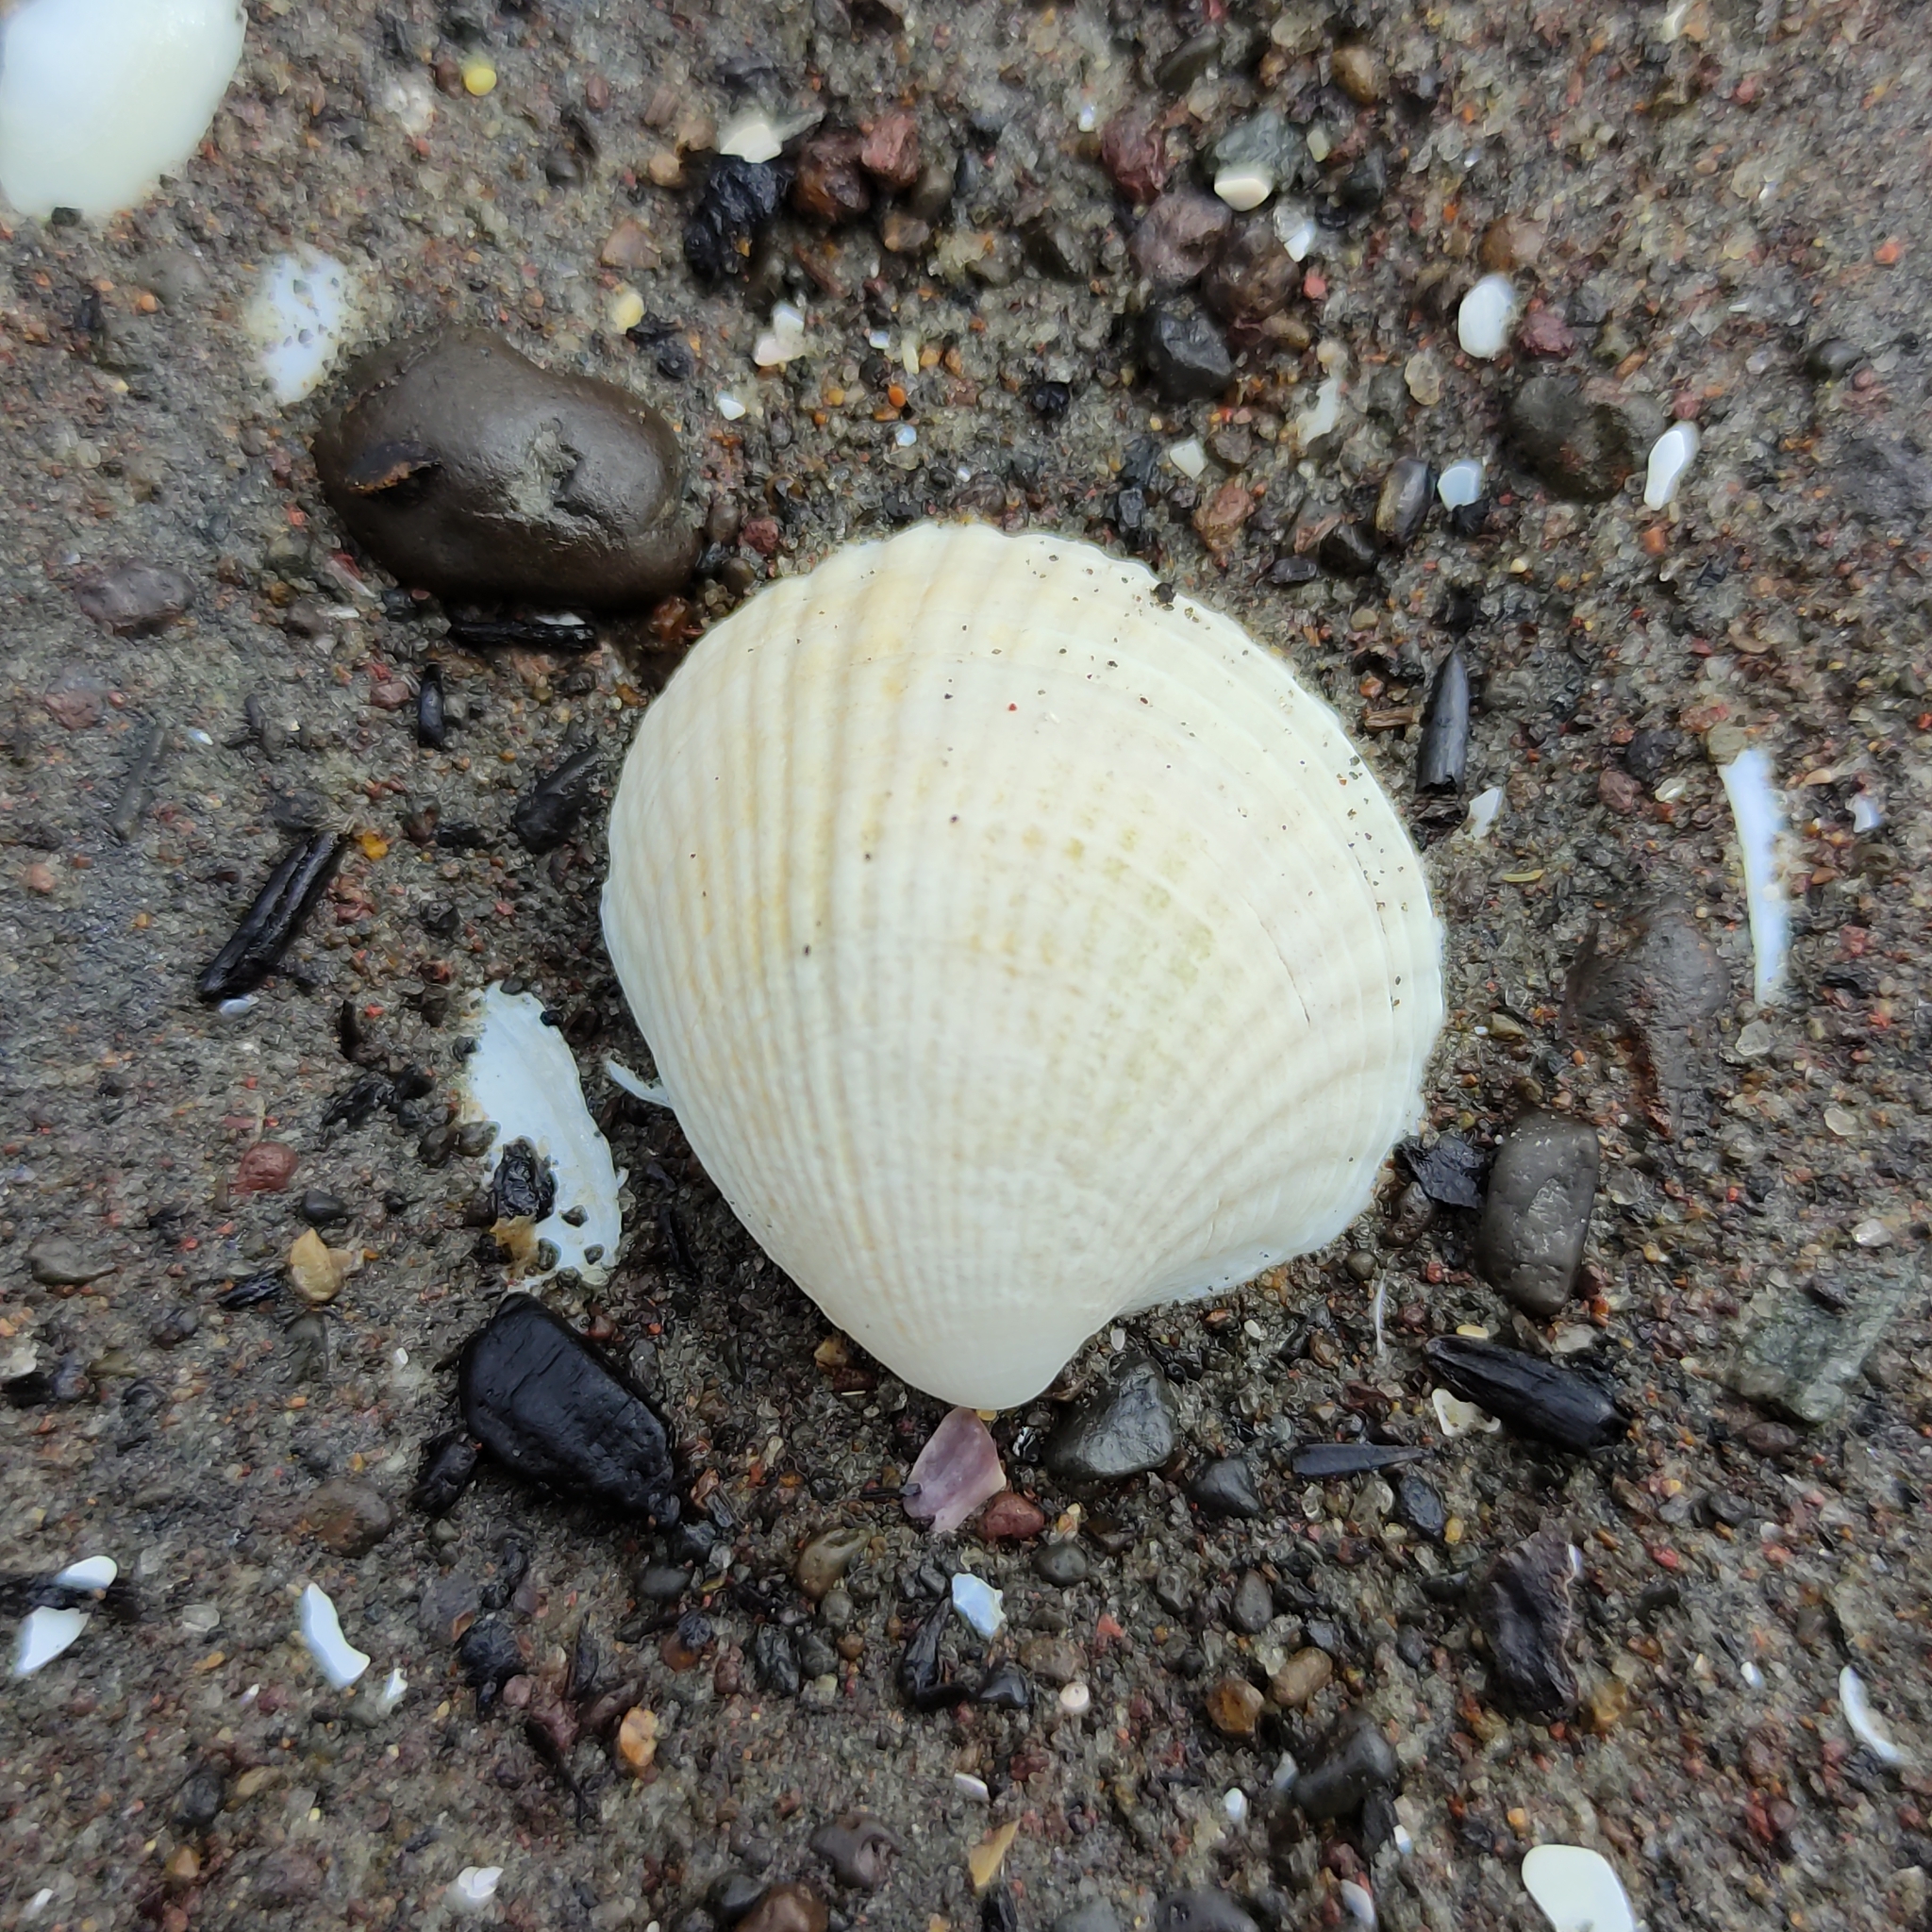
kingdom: Animalia
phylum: Mollusca
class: Bivalvia
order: Venerida
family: Veneridae
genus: Austrovenus
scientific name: Austrovenus stutchburyi
